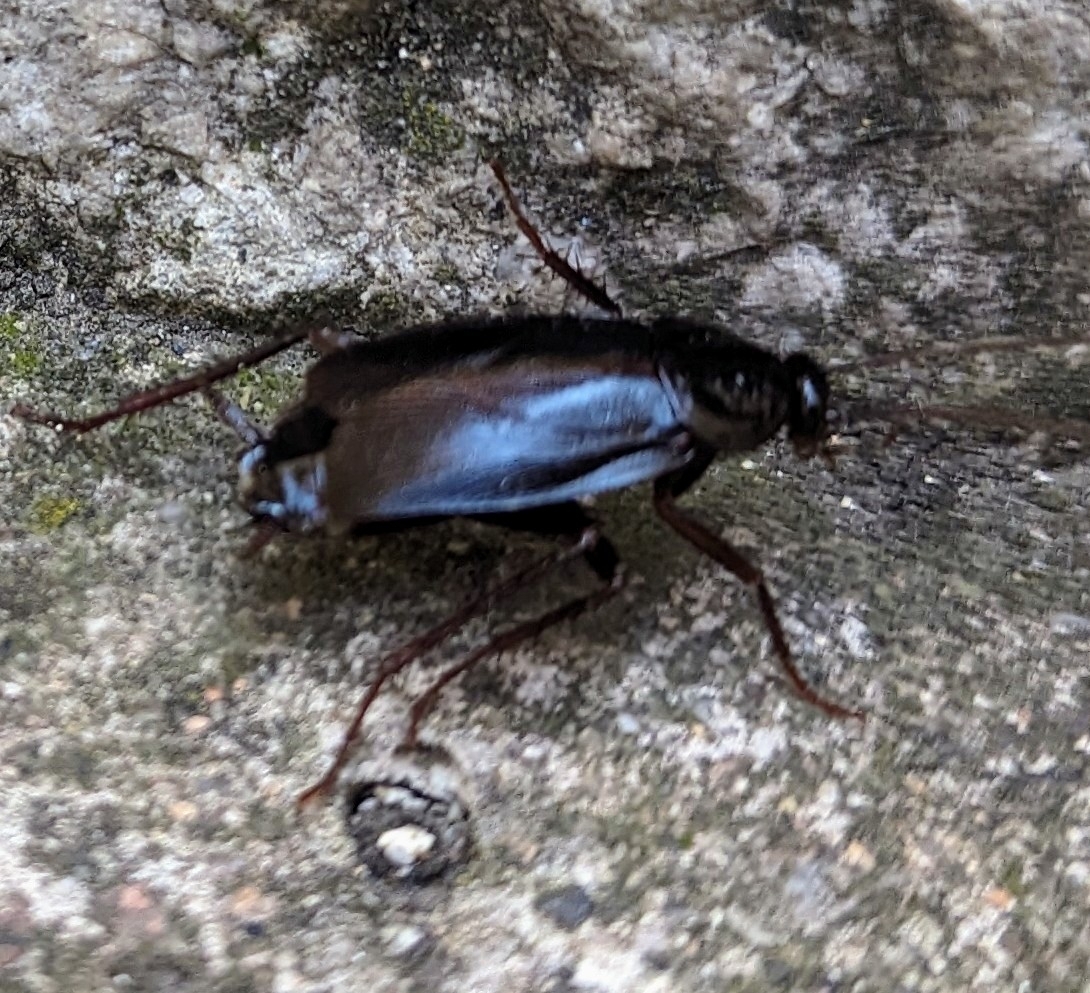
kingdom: Animalia
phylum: Arthropoda
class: Insecta
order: Blattodea
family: Blattidae
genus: Blatta
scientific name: Blatta orientalis
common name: Oriental cockroach
